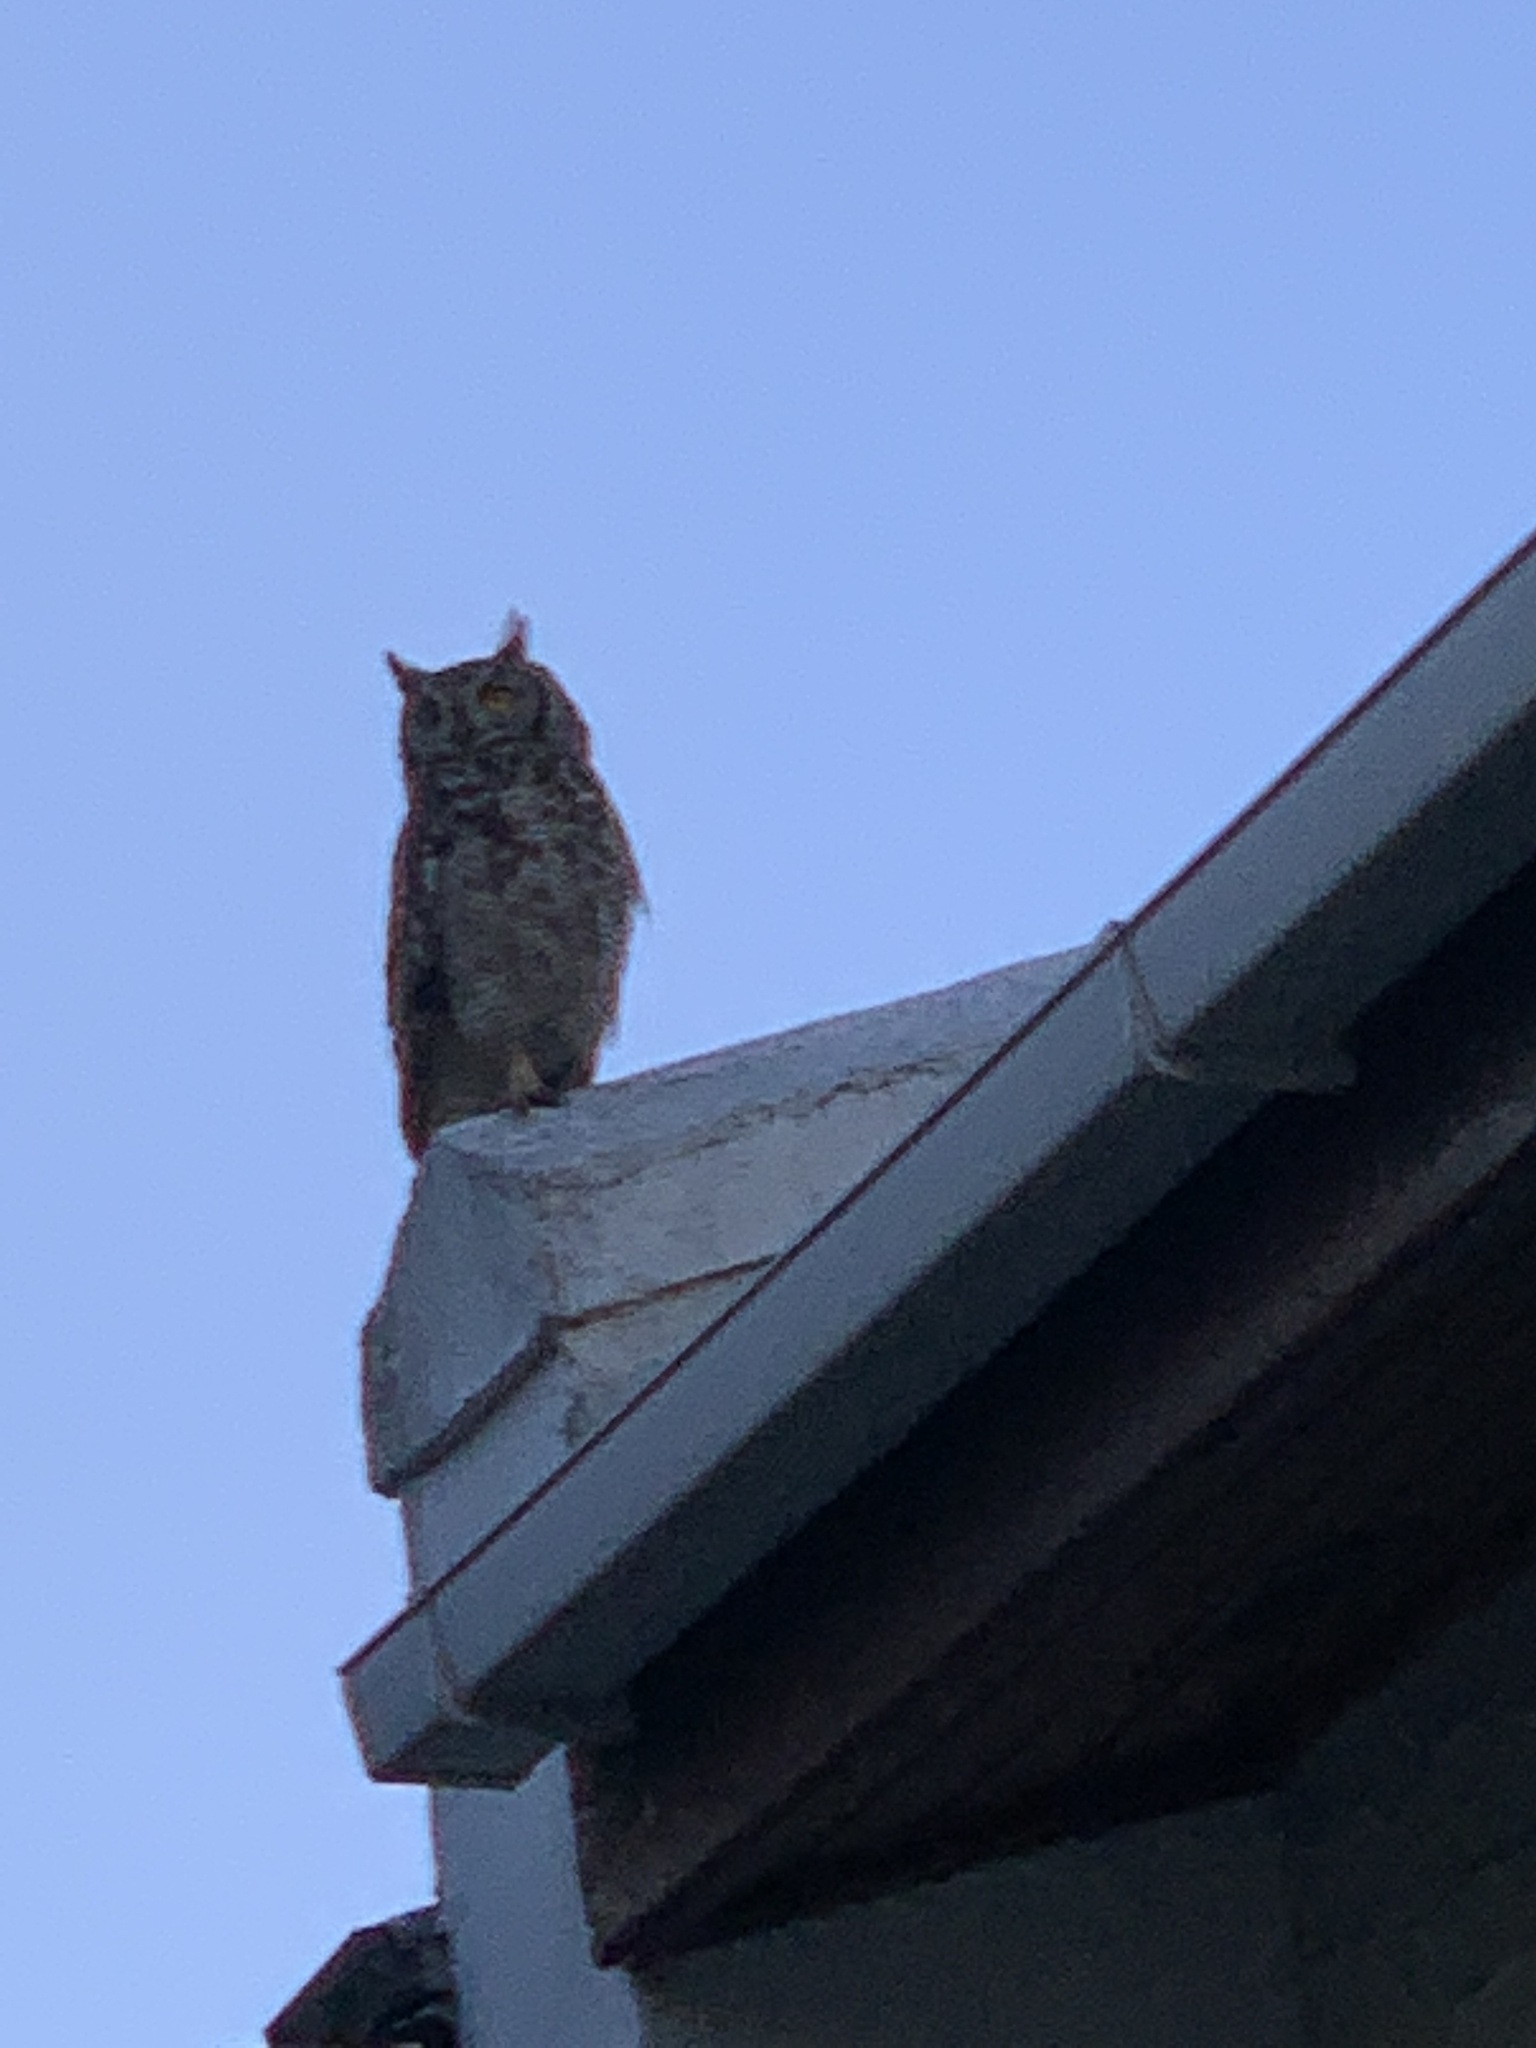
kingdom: Animalia
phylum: Chordata
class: Aves
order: Strigiformes
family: Strigidae
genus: Bubo
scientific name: Bubo africanus
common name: Spotted eagle-owl
